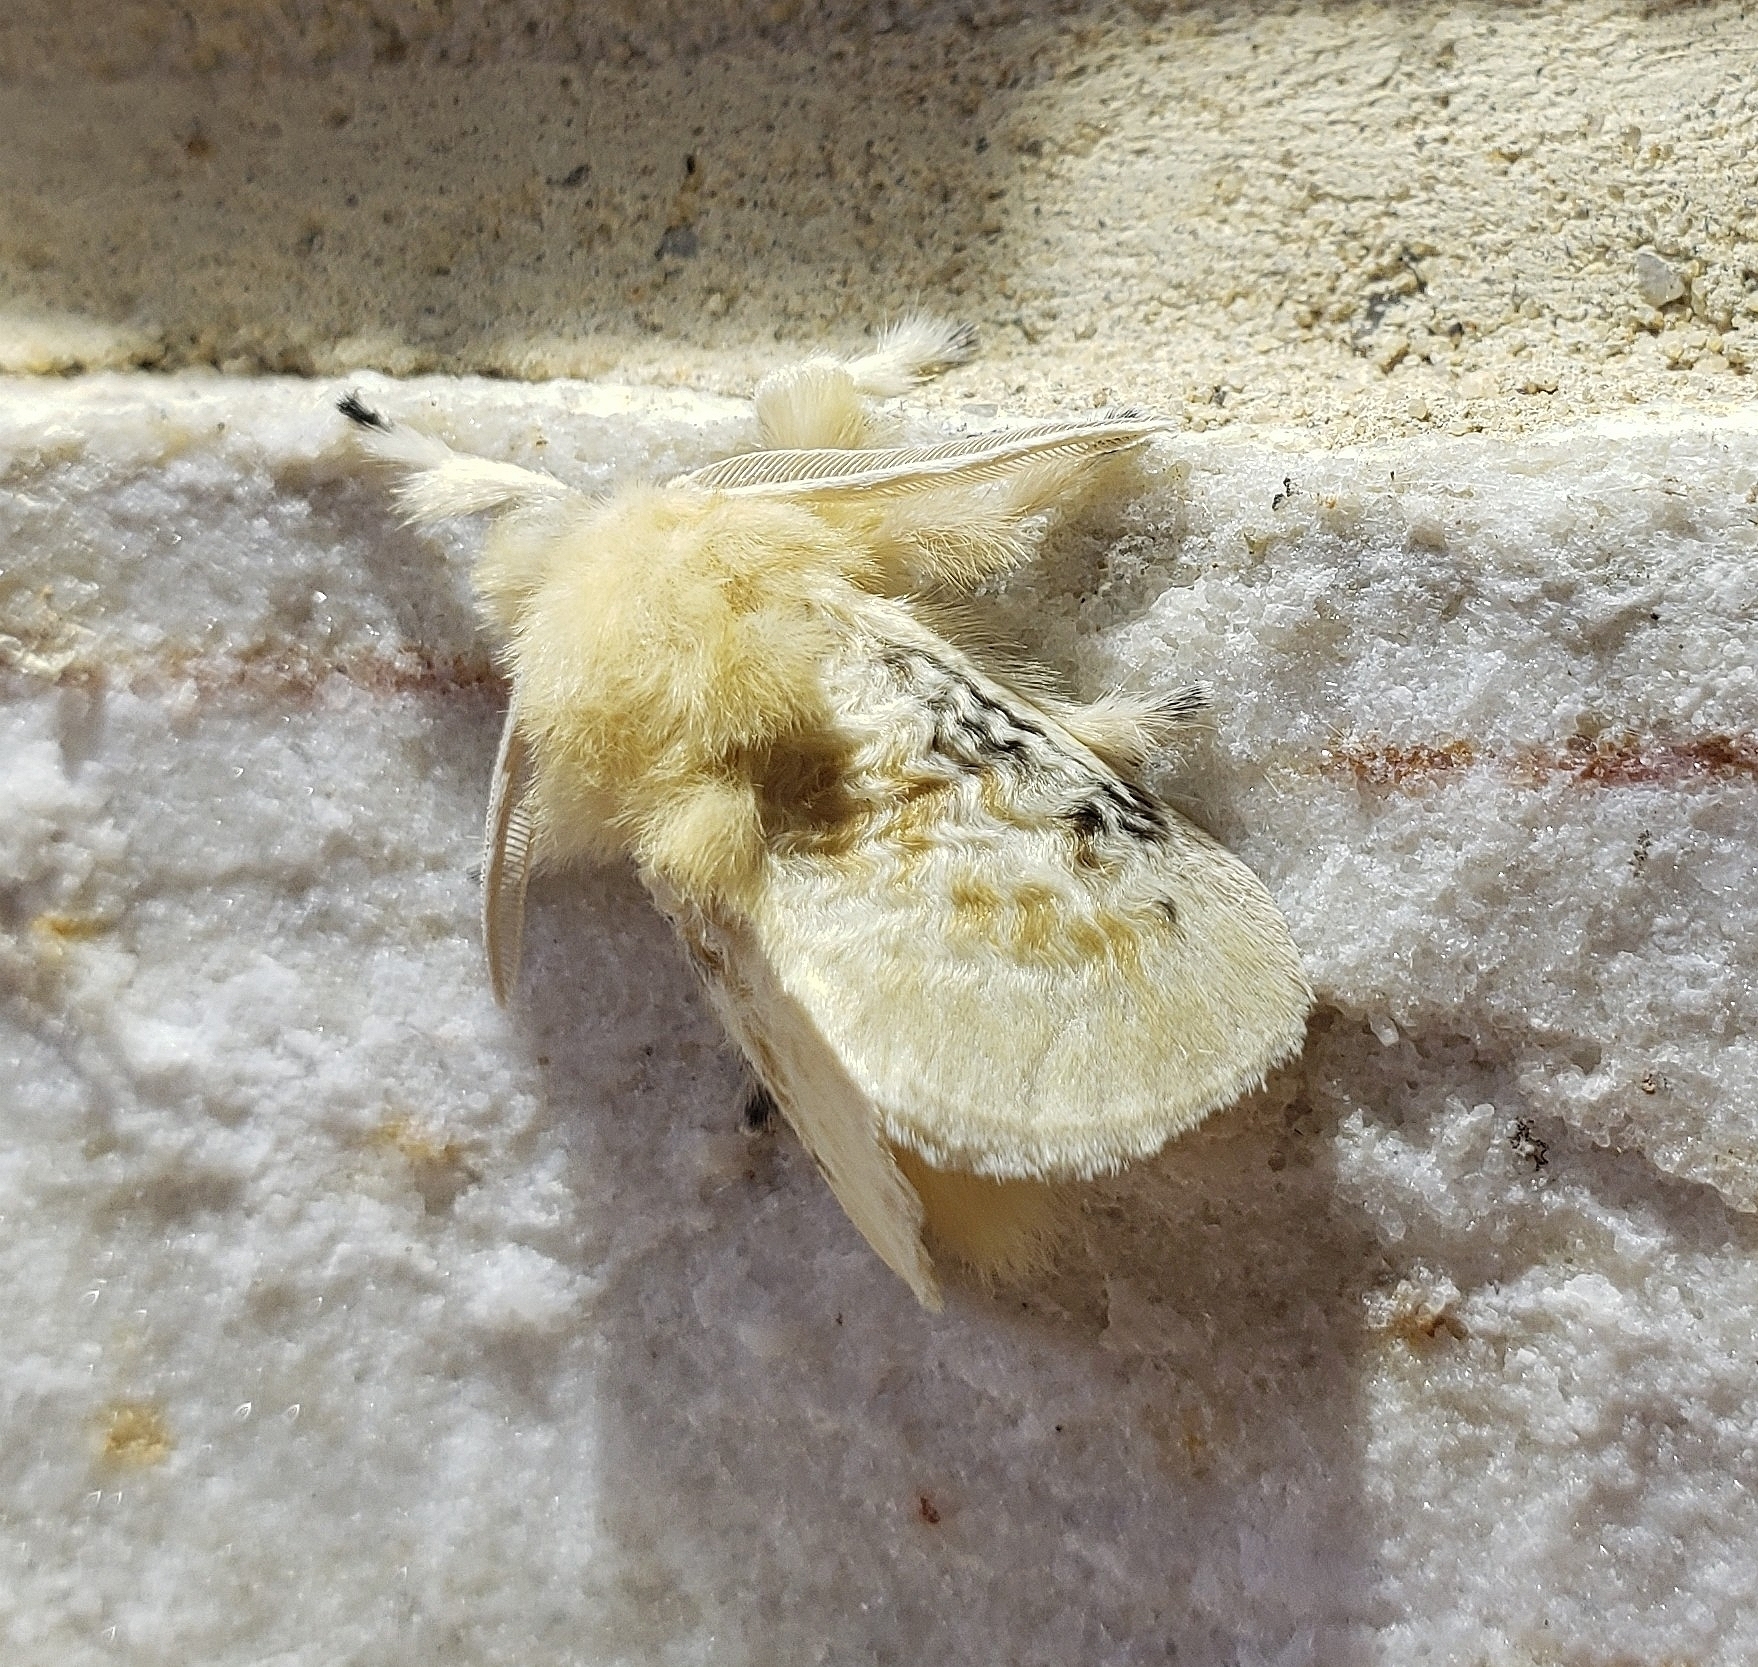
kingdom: Animalia
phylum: Arthropoda
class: Insecta
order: Lepidoptera
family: Megalopygidae
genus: Megalopyge
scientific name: Megalopyge crispata
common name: Black-waved flannel moth
